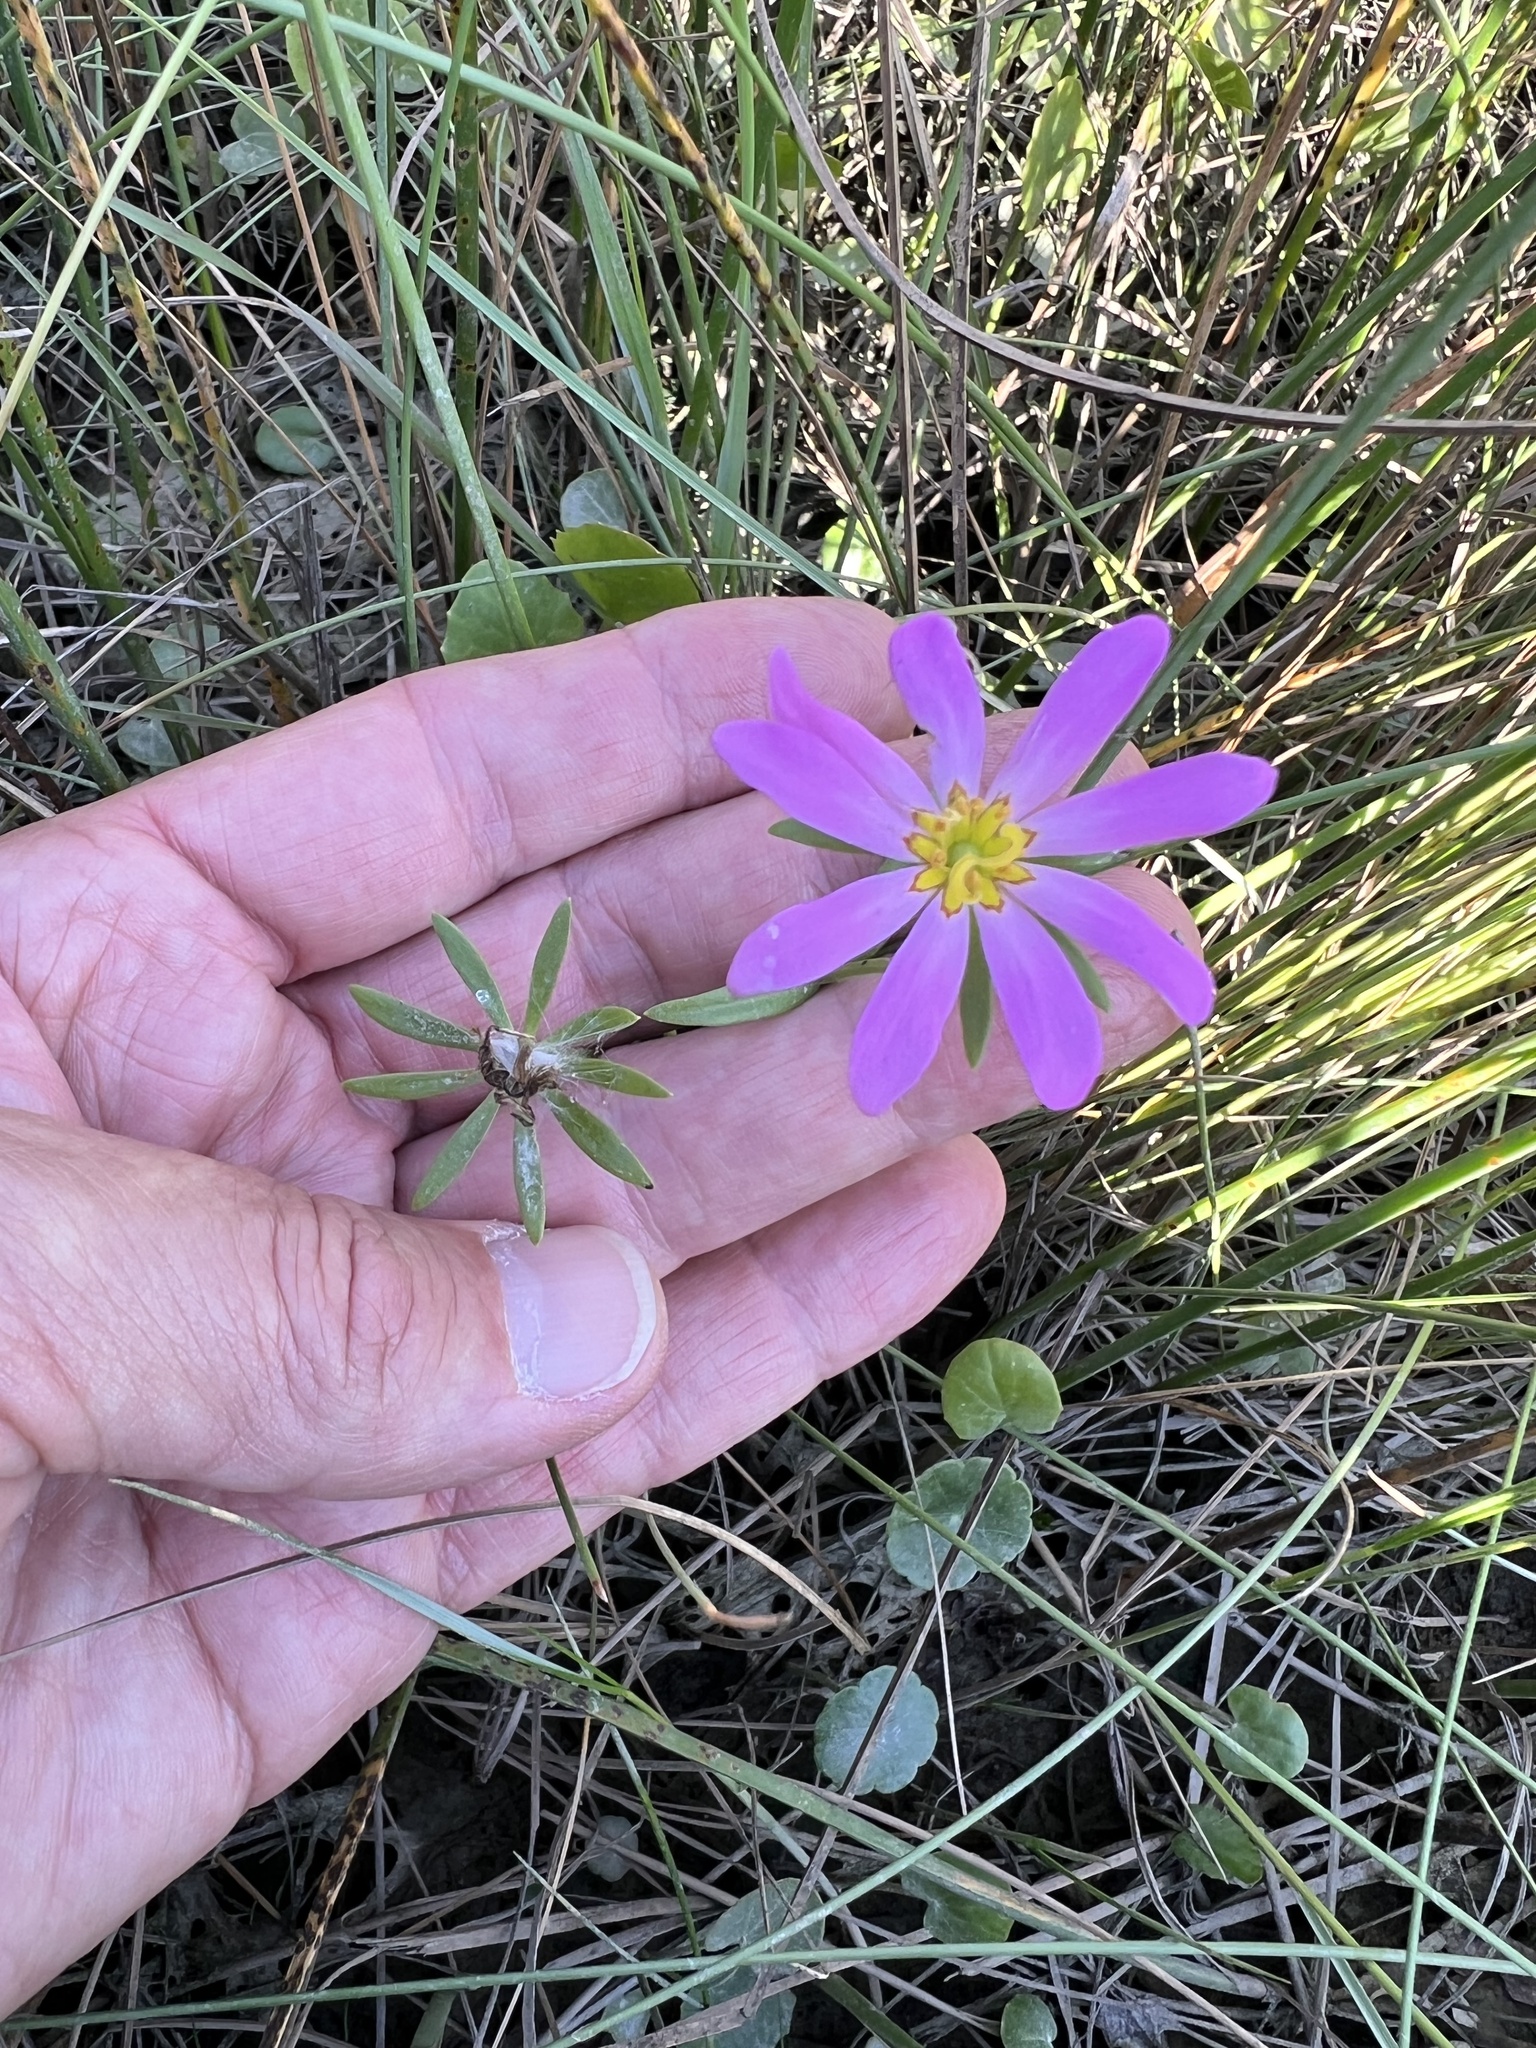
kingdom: Plantae
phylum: Tracheophyta
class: Magnoliopsida
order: Gentianales
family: Gentianaceae
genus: Sabatia
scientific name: Sabatia dodecandra
